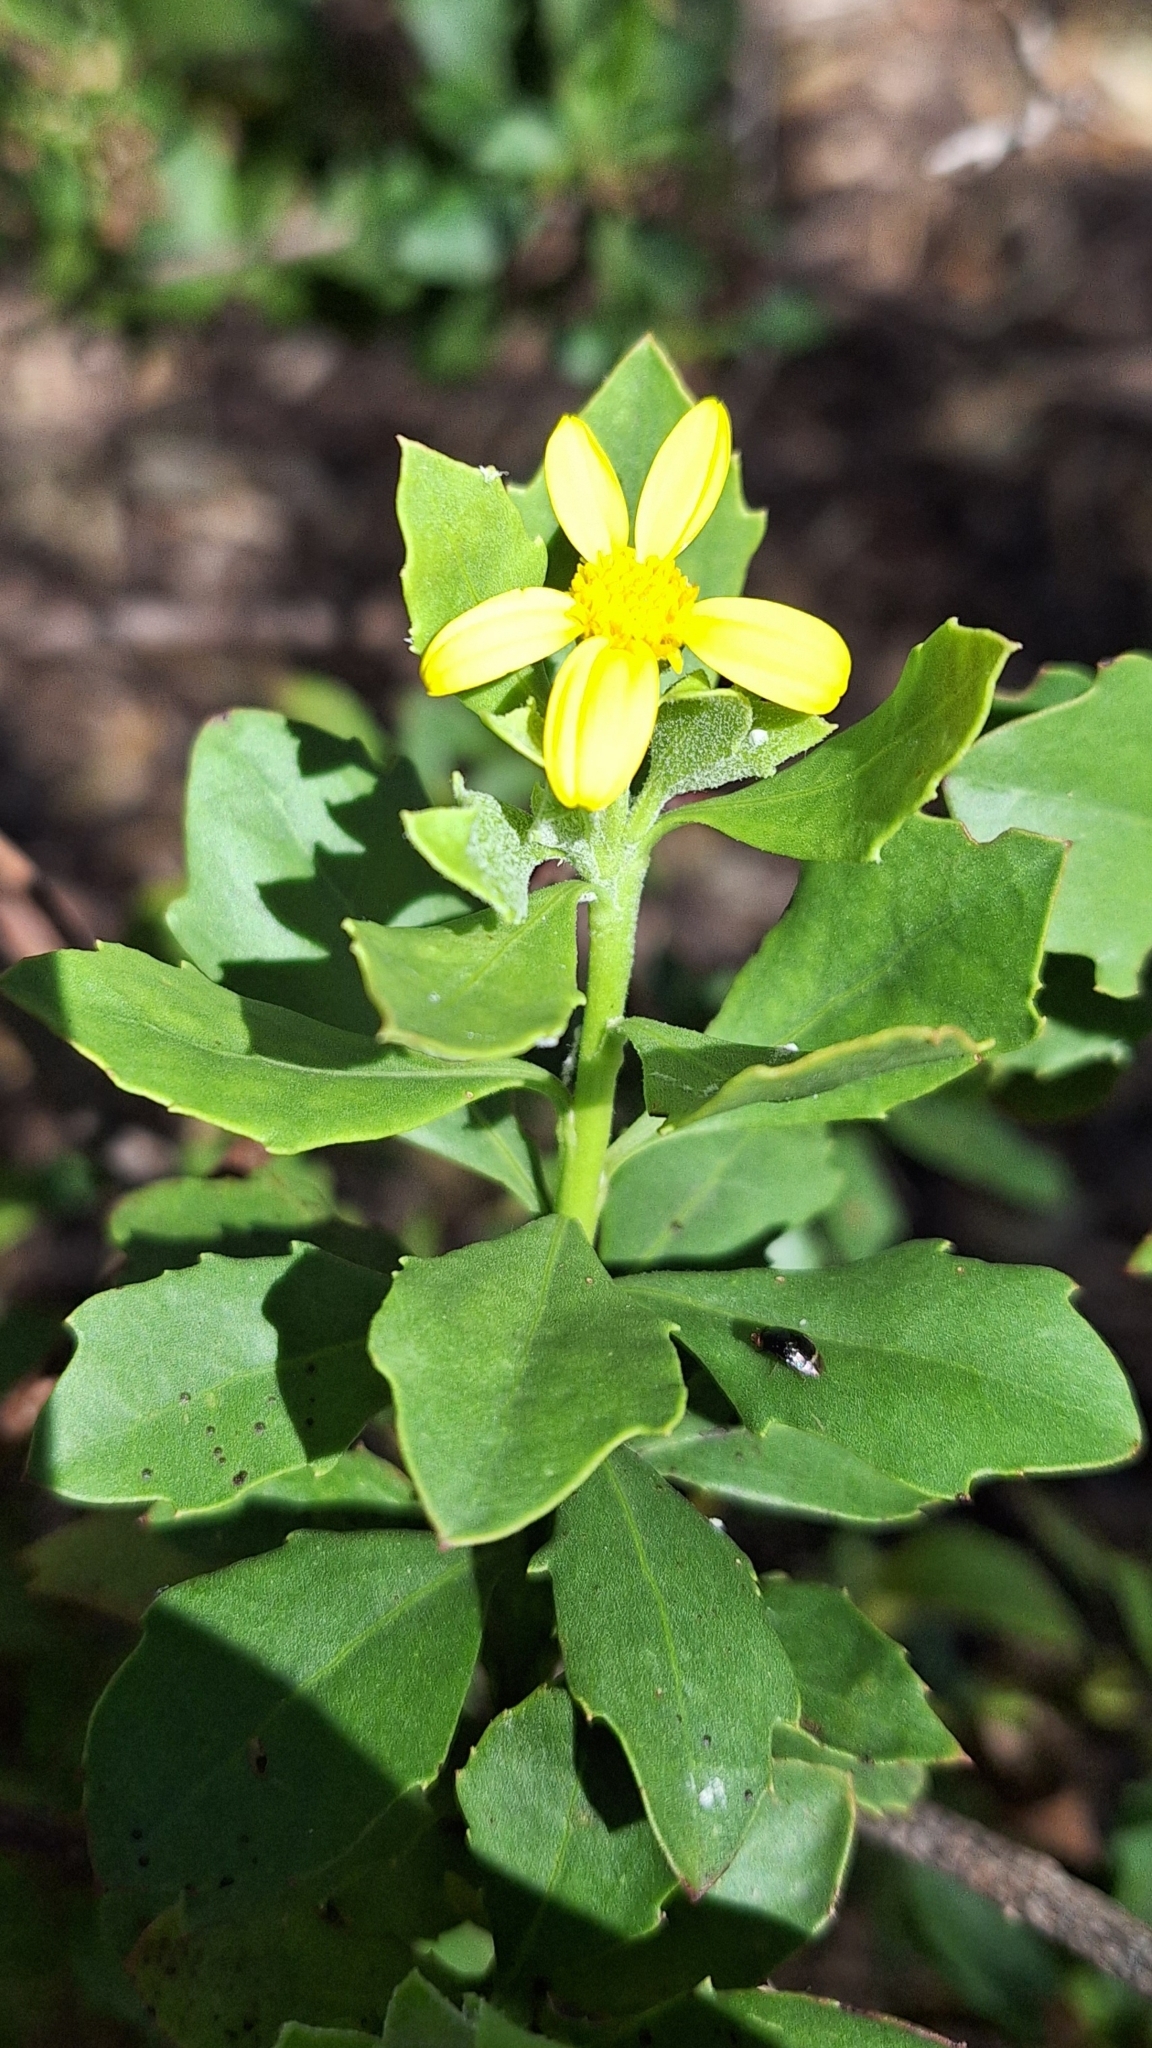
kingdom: Plantae
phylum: Tracheophyta
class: Magnoliopsida
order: Asterales
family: Asteraceae
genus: Osteospermum
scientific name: Osteospermum moniliferum
